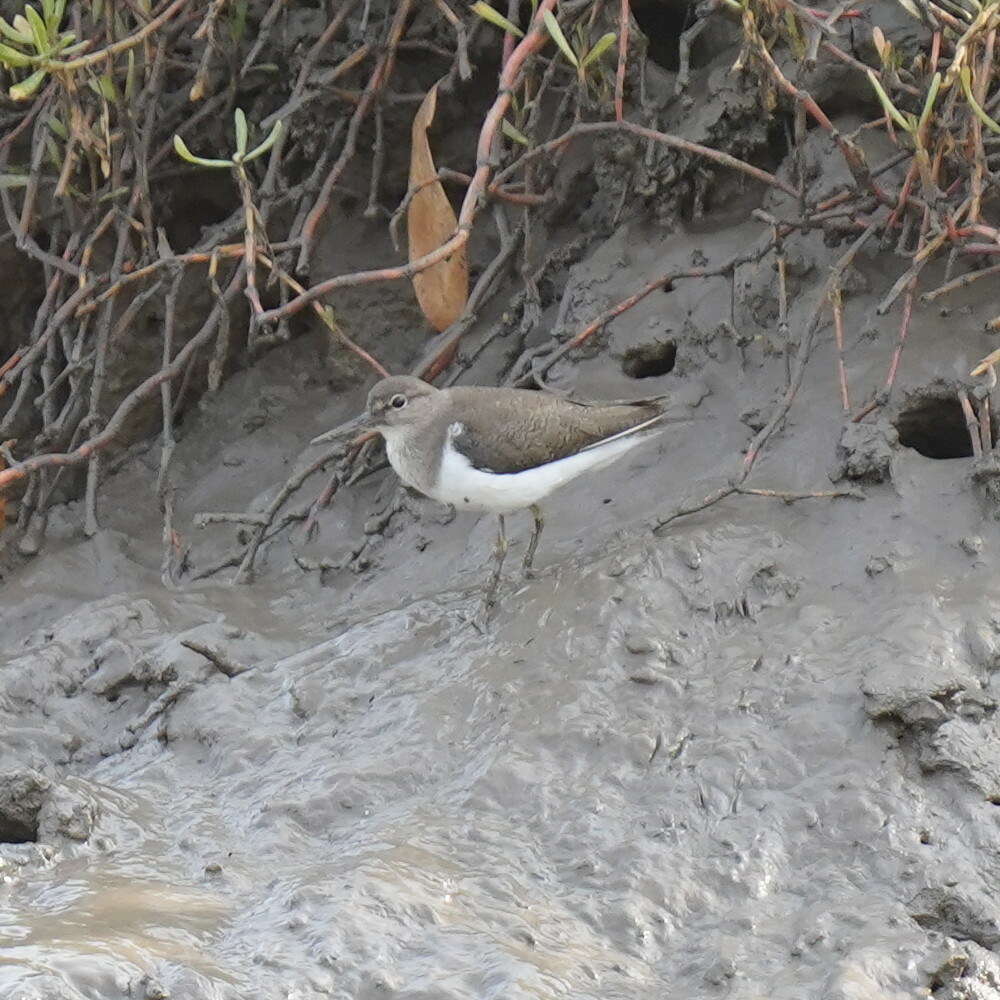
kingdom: Animalia
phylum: Chordata
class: Aves
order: Charadriiformes
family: Scolopacidae
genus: Actitis
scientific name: Actitis hypoleucos
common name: Common sandpiper
